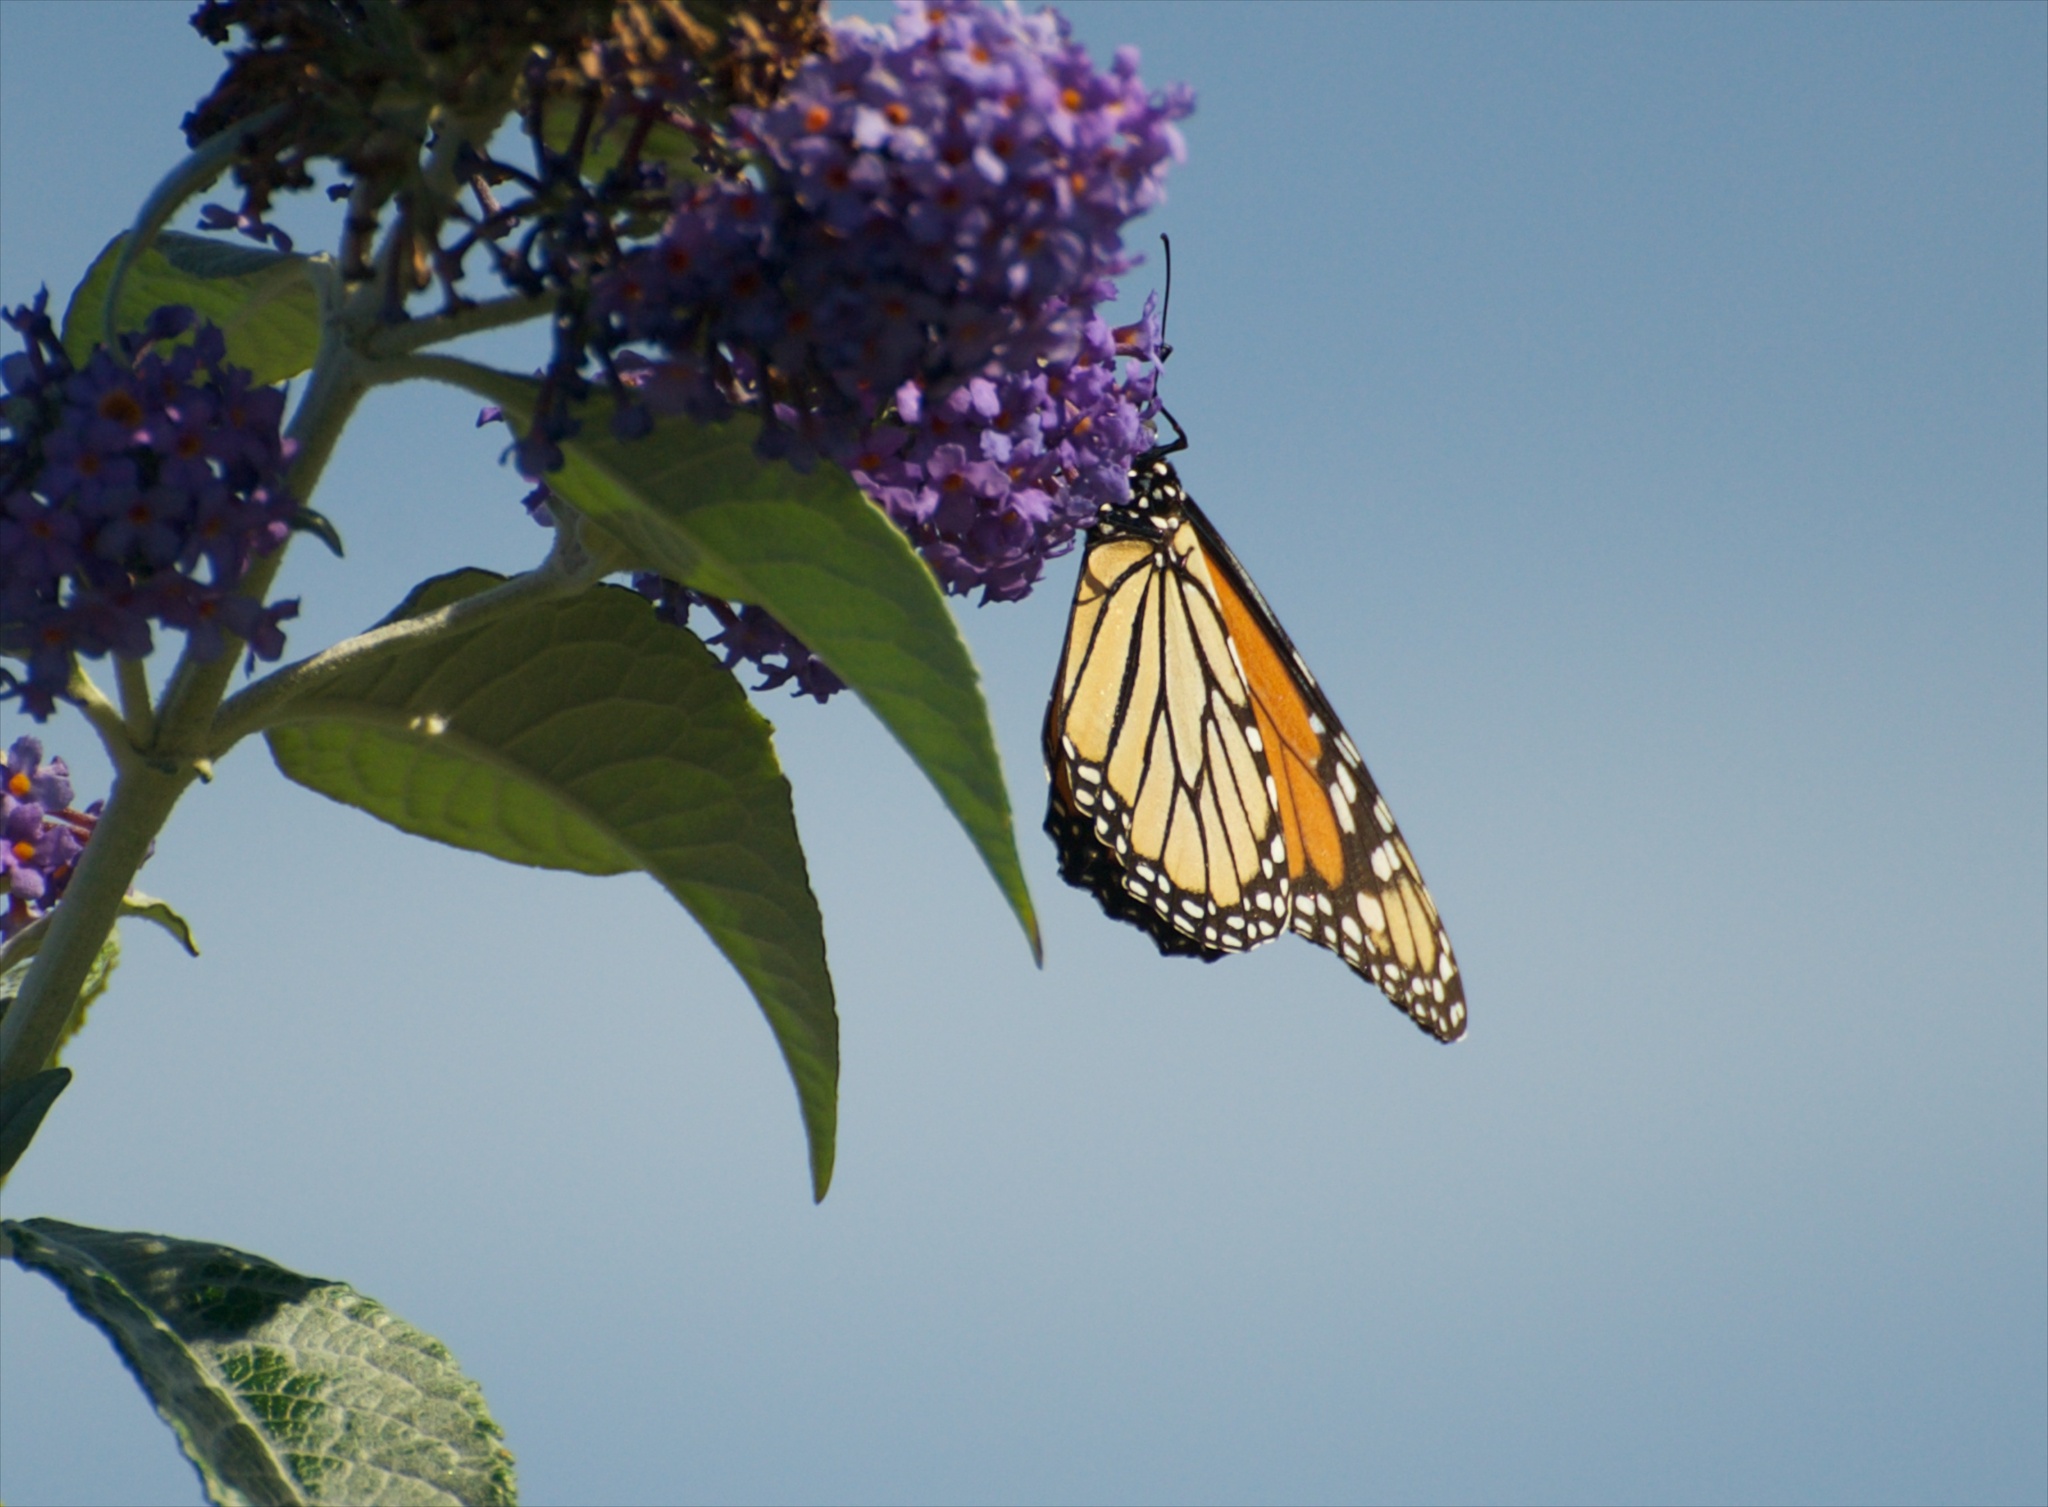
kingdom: Animalia
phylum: Arthropoda
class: Insecta
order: Lepidoptera
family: Nymphalidae
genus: Danaus
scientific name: Danaus plexippus
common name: Monarch
